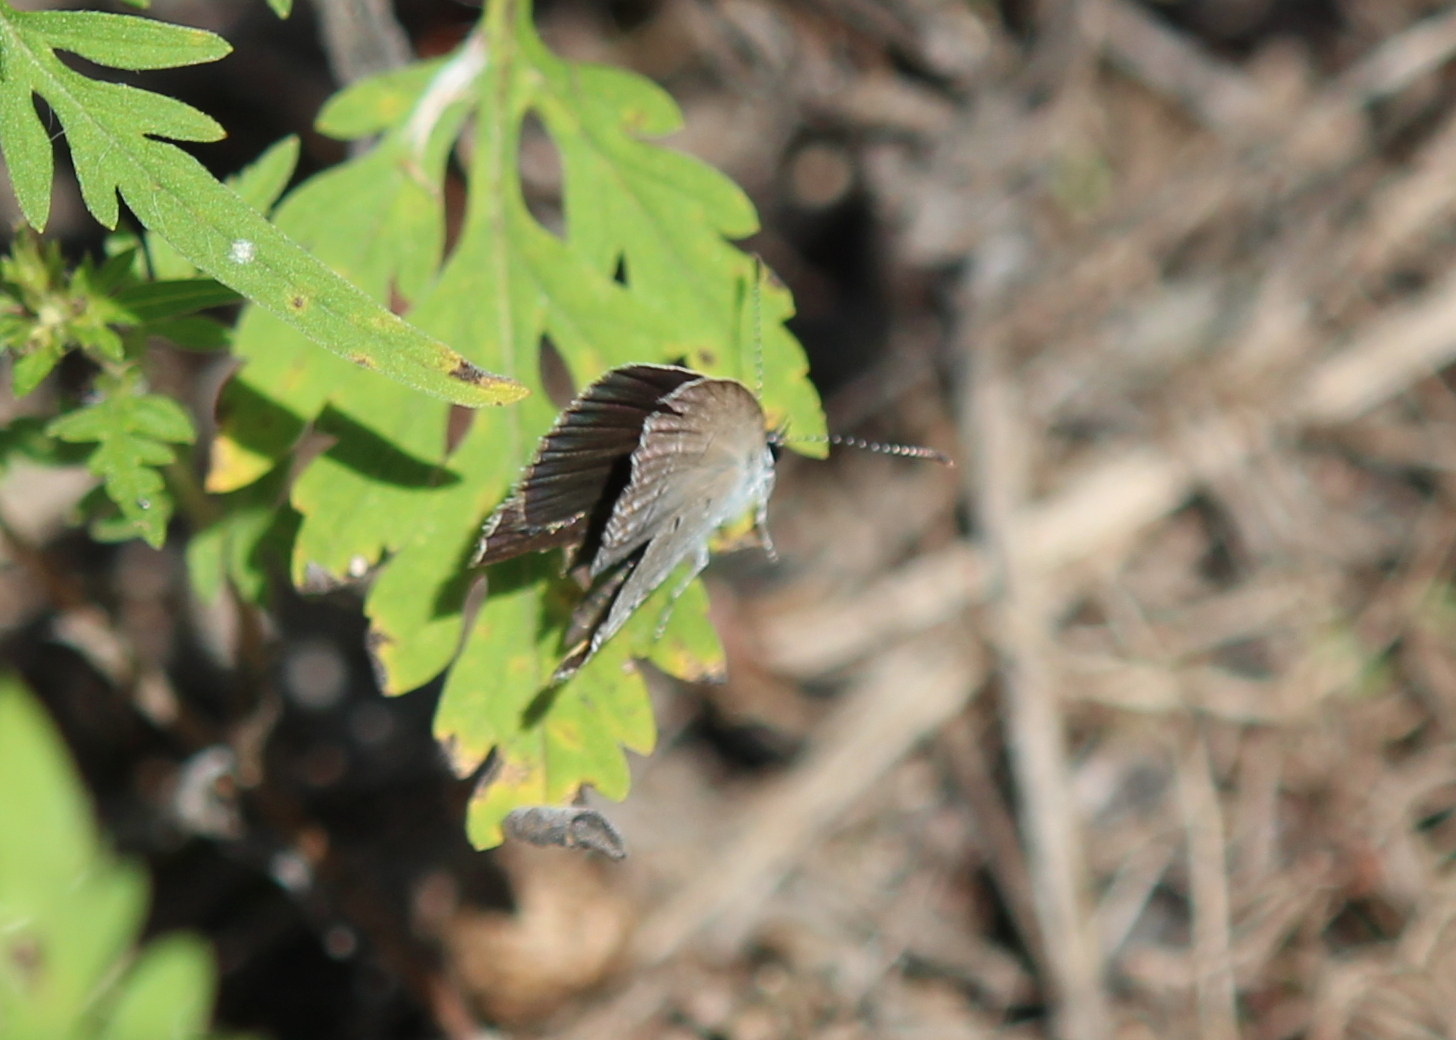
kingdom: Animalia
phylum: Arthropoda
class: Insecta
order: Lepidoptera
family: Lycaenidae
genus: Elkalyce
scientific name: Elkalyce comyntas
